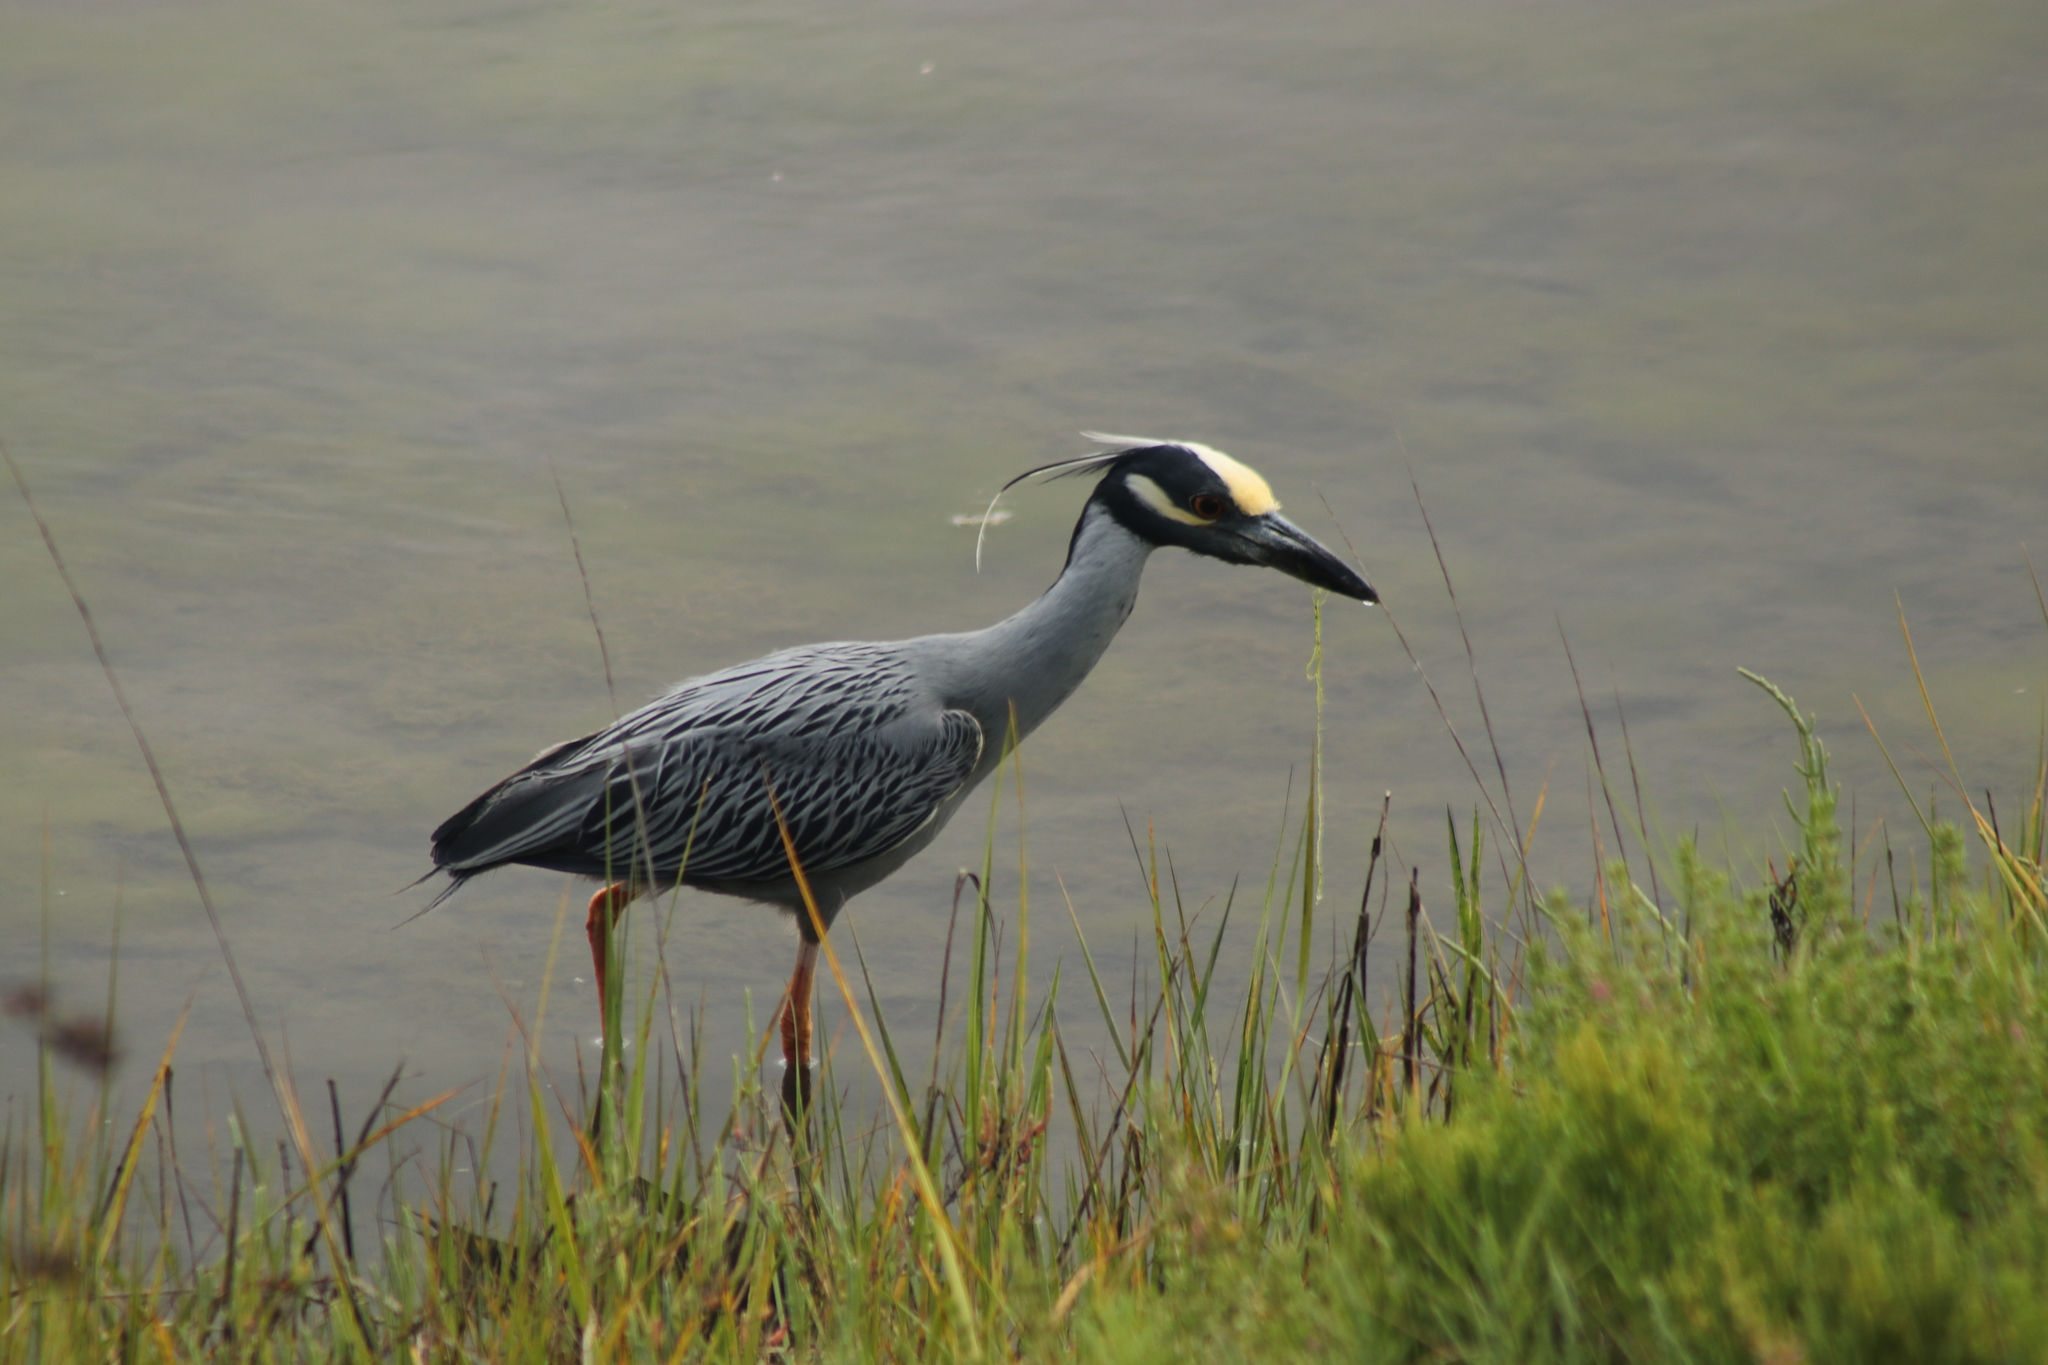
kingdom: Animalia
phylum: Chordata
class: Aves
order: Pelecaniformes
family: Ardeidae
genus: Nyctanassa
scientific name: Nyctanassa violacea
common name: Yellow-crowned night heron
